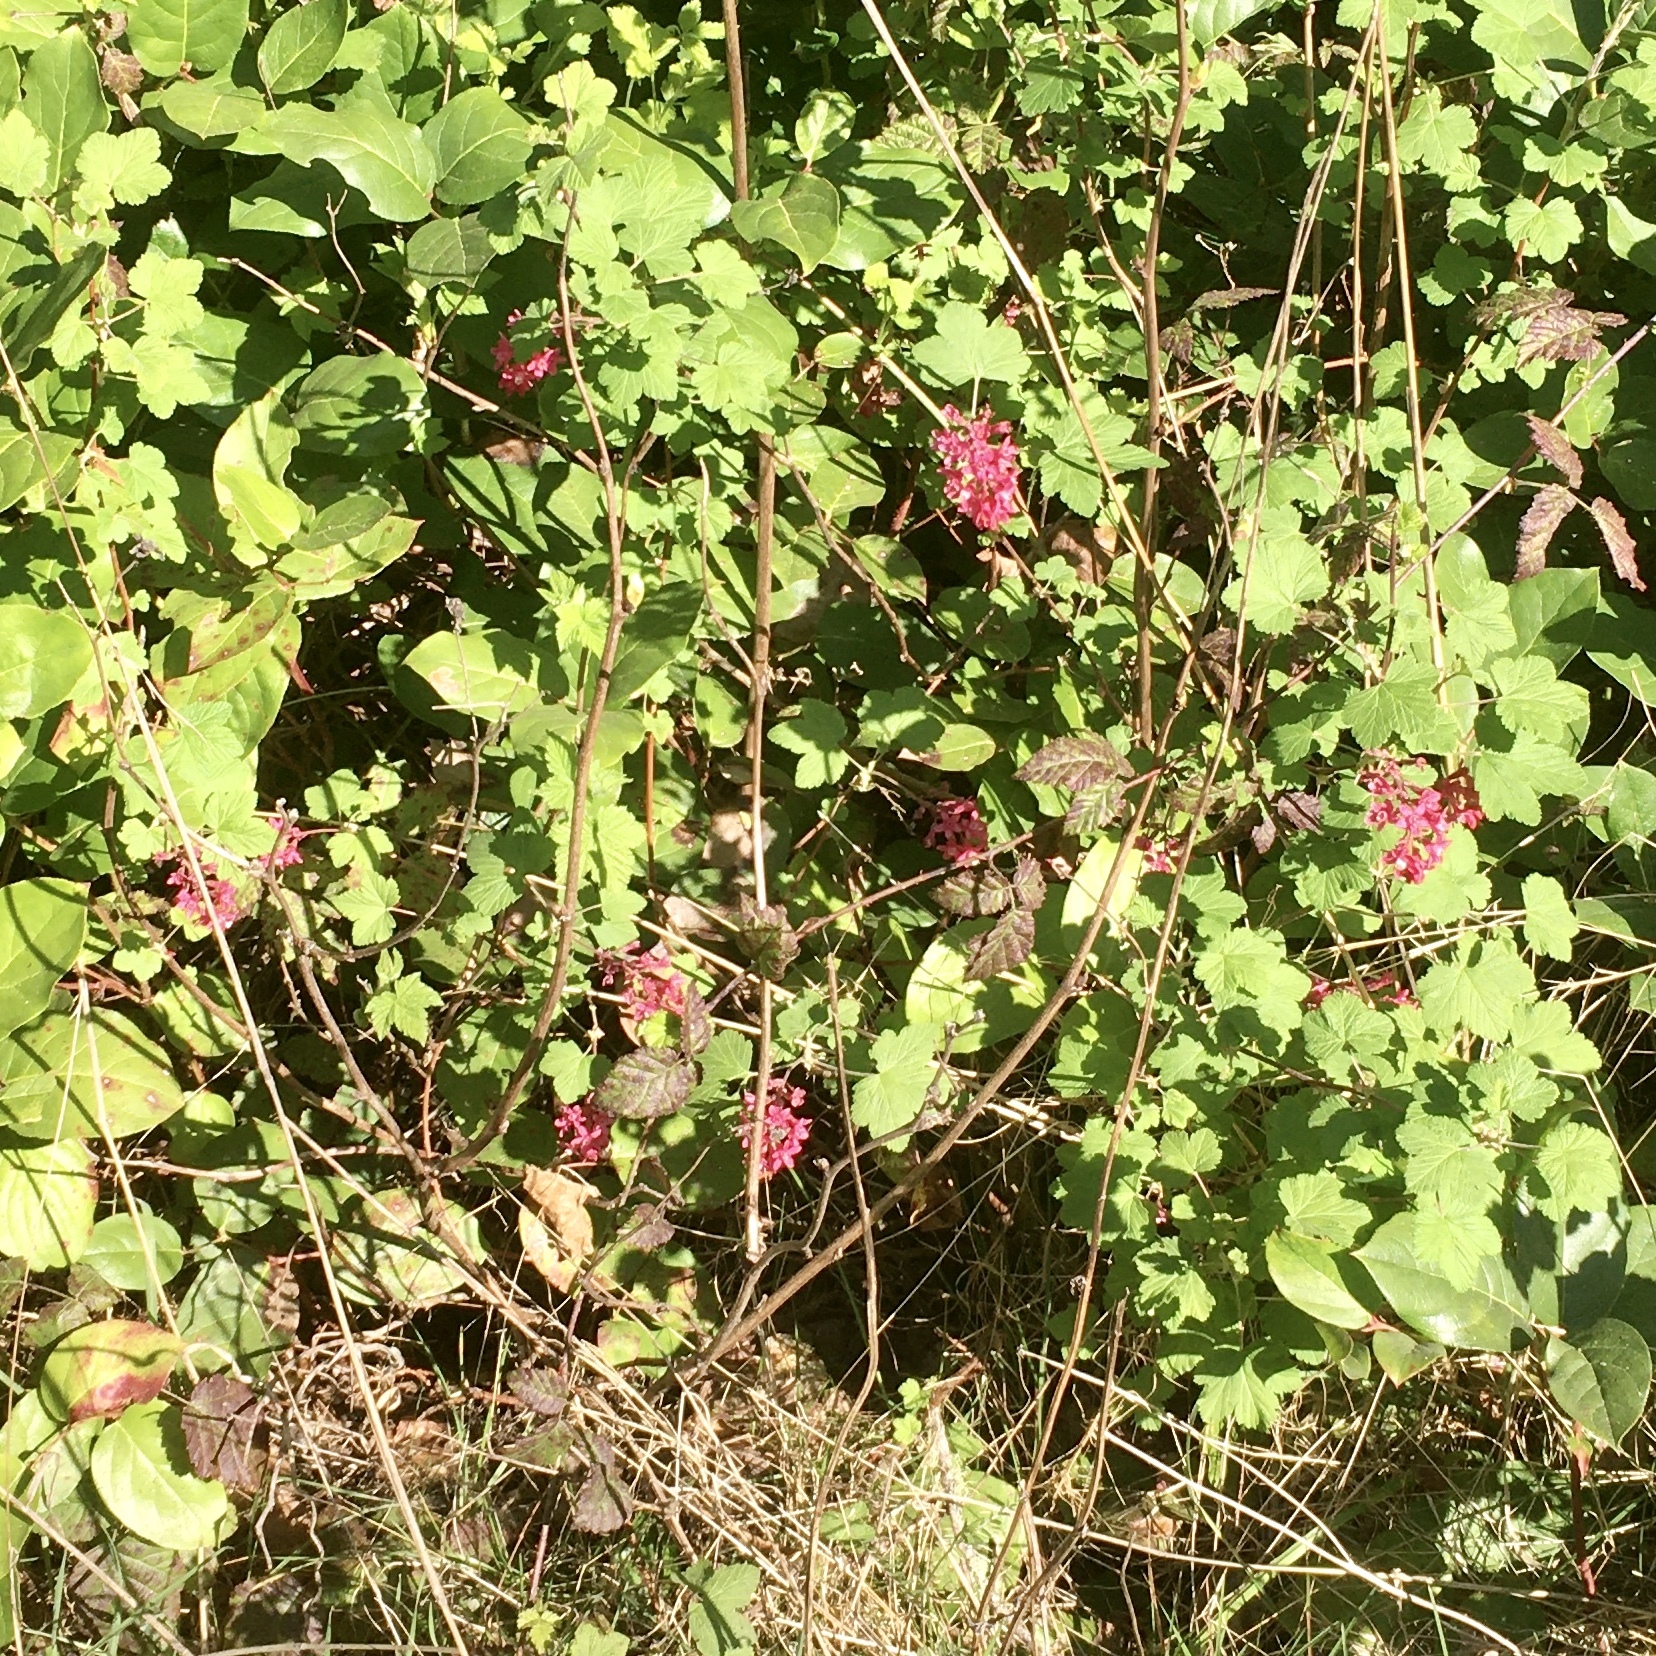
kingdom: Plantae
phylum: Tracheophyta
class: Magnoliopsida
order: Saxifragales
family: Grossulariaceae
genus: Ribes
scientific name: Ribes sanguineum
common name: Flowering currant
